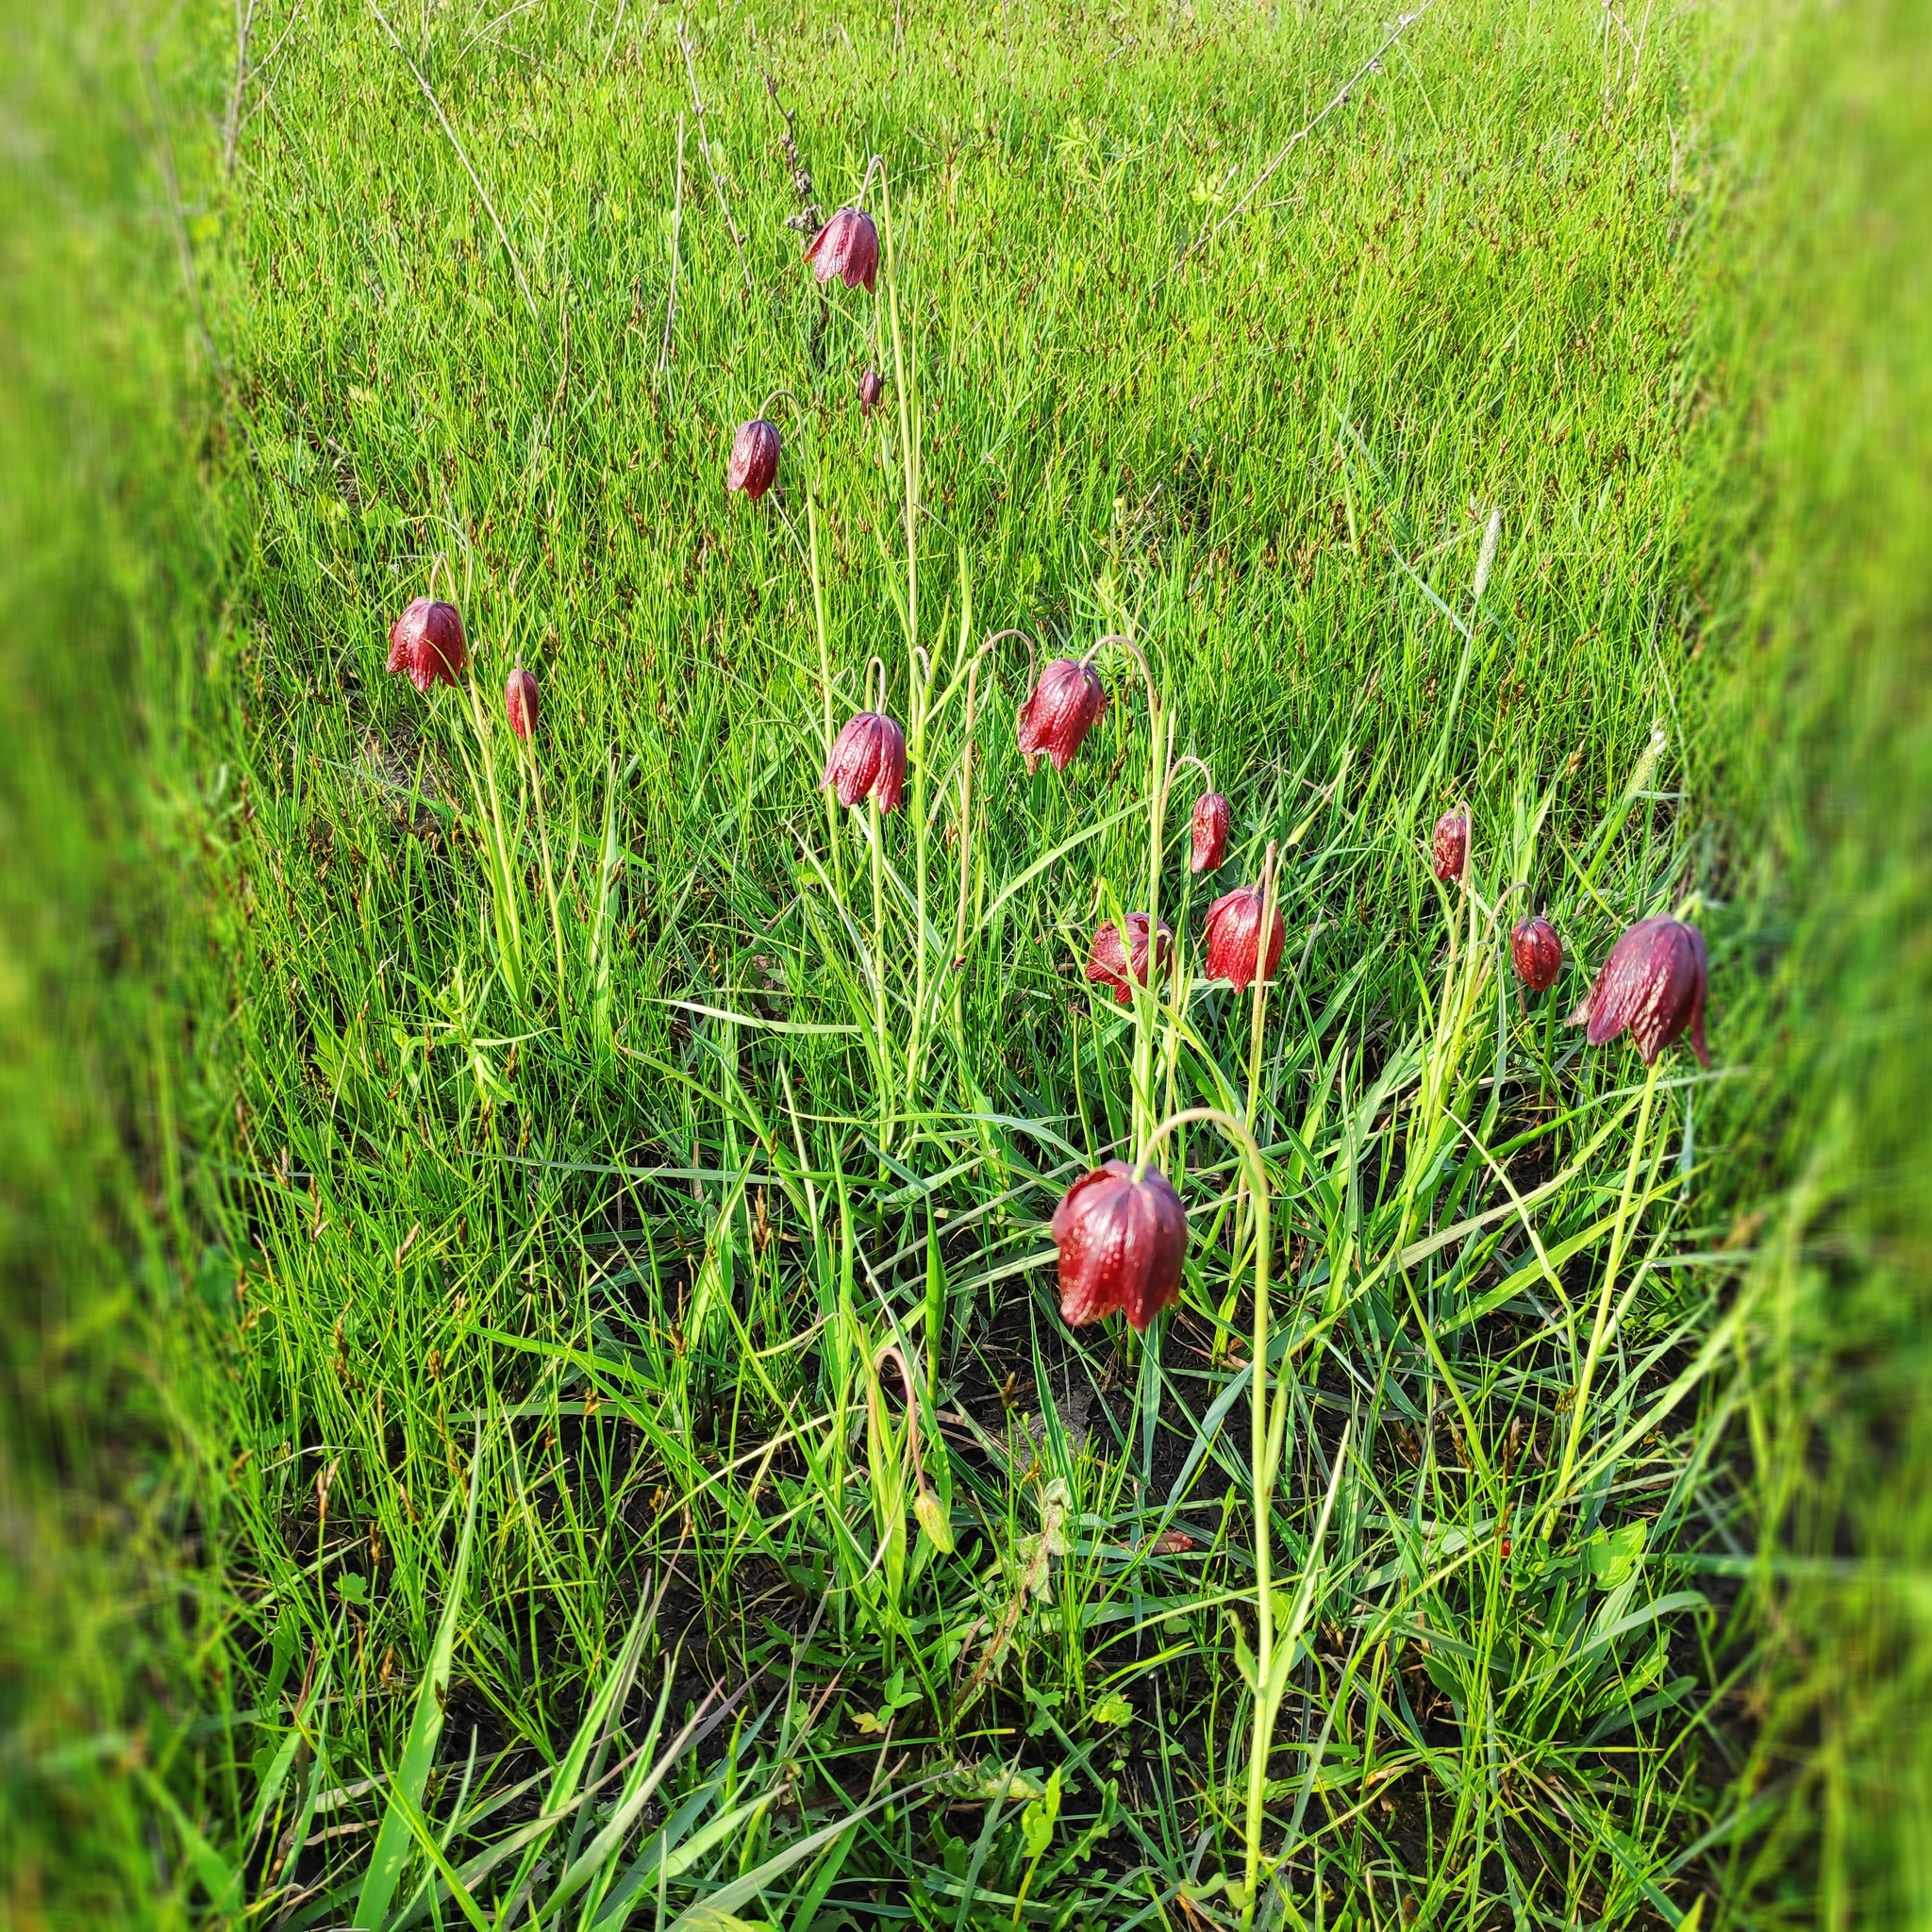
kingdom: Plantae
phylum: Tracheophyta
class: Liliopsida
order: Liliales
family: Liliaceae
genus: Fritillaria
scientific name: Fritillaria meleagroides
